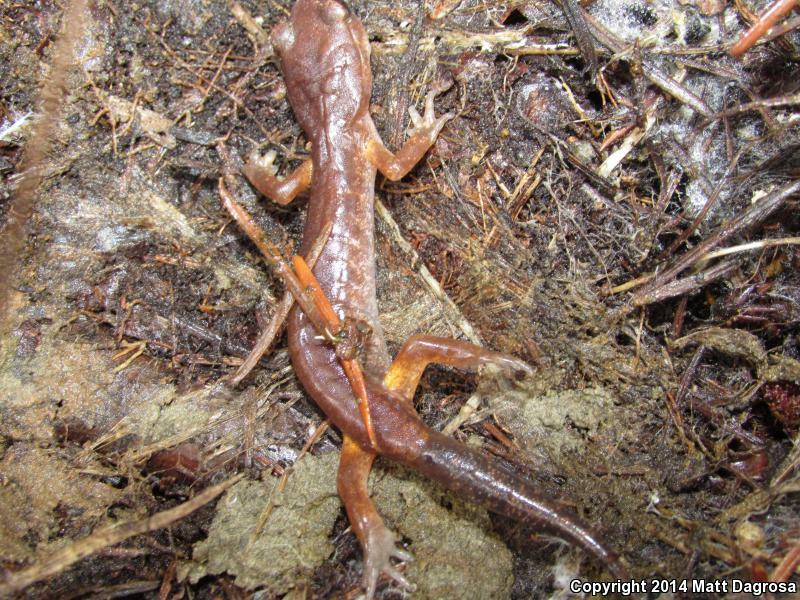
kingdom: Animalia
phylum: Chordata
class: Amphibia
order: Caudata
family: Plethodontidae
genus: Ensatina
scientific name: Ensatina eschscholtzii
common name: Ensatina
